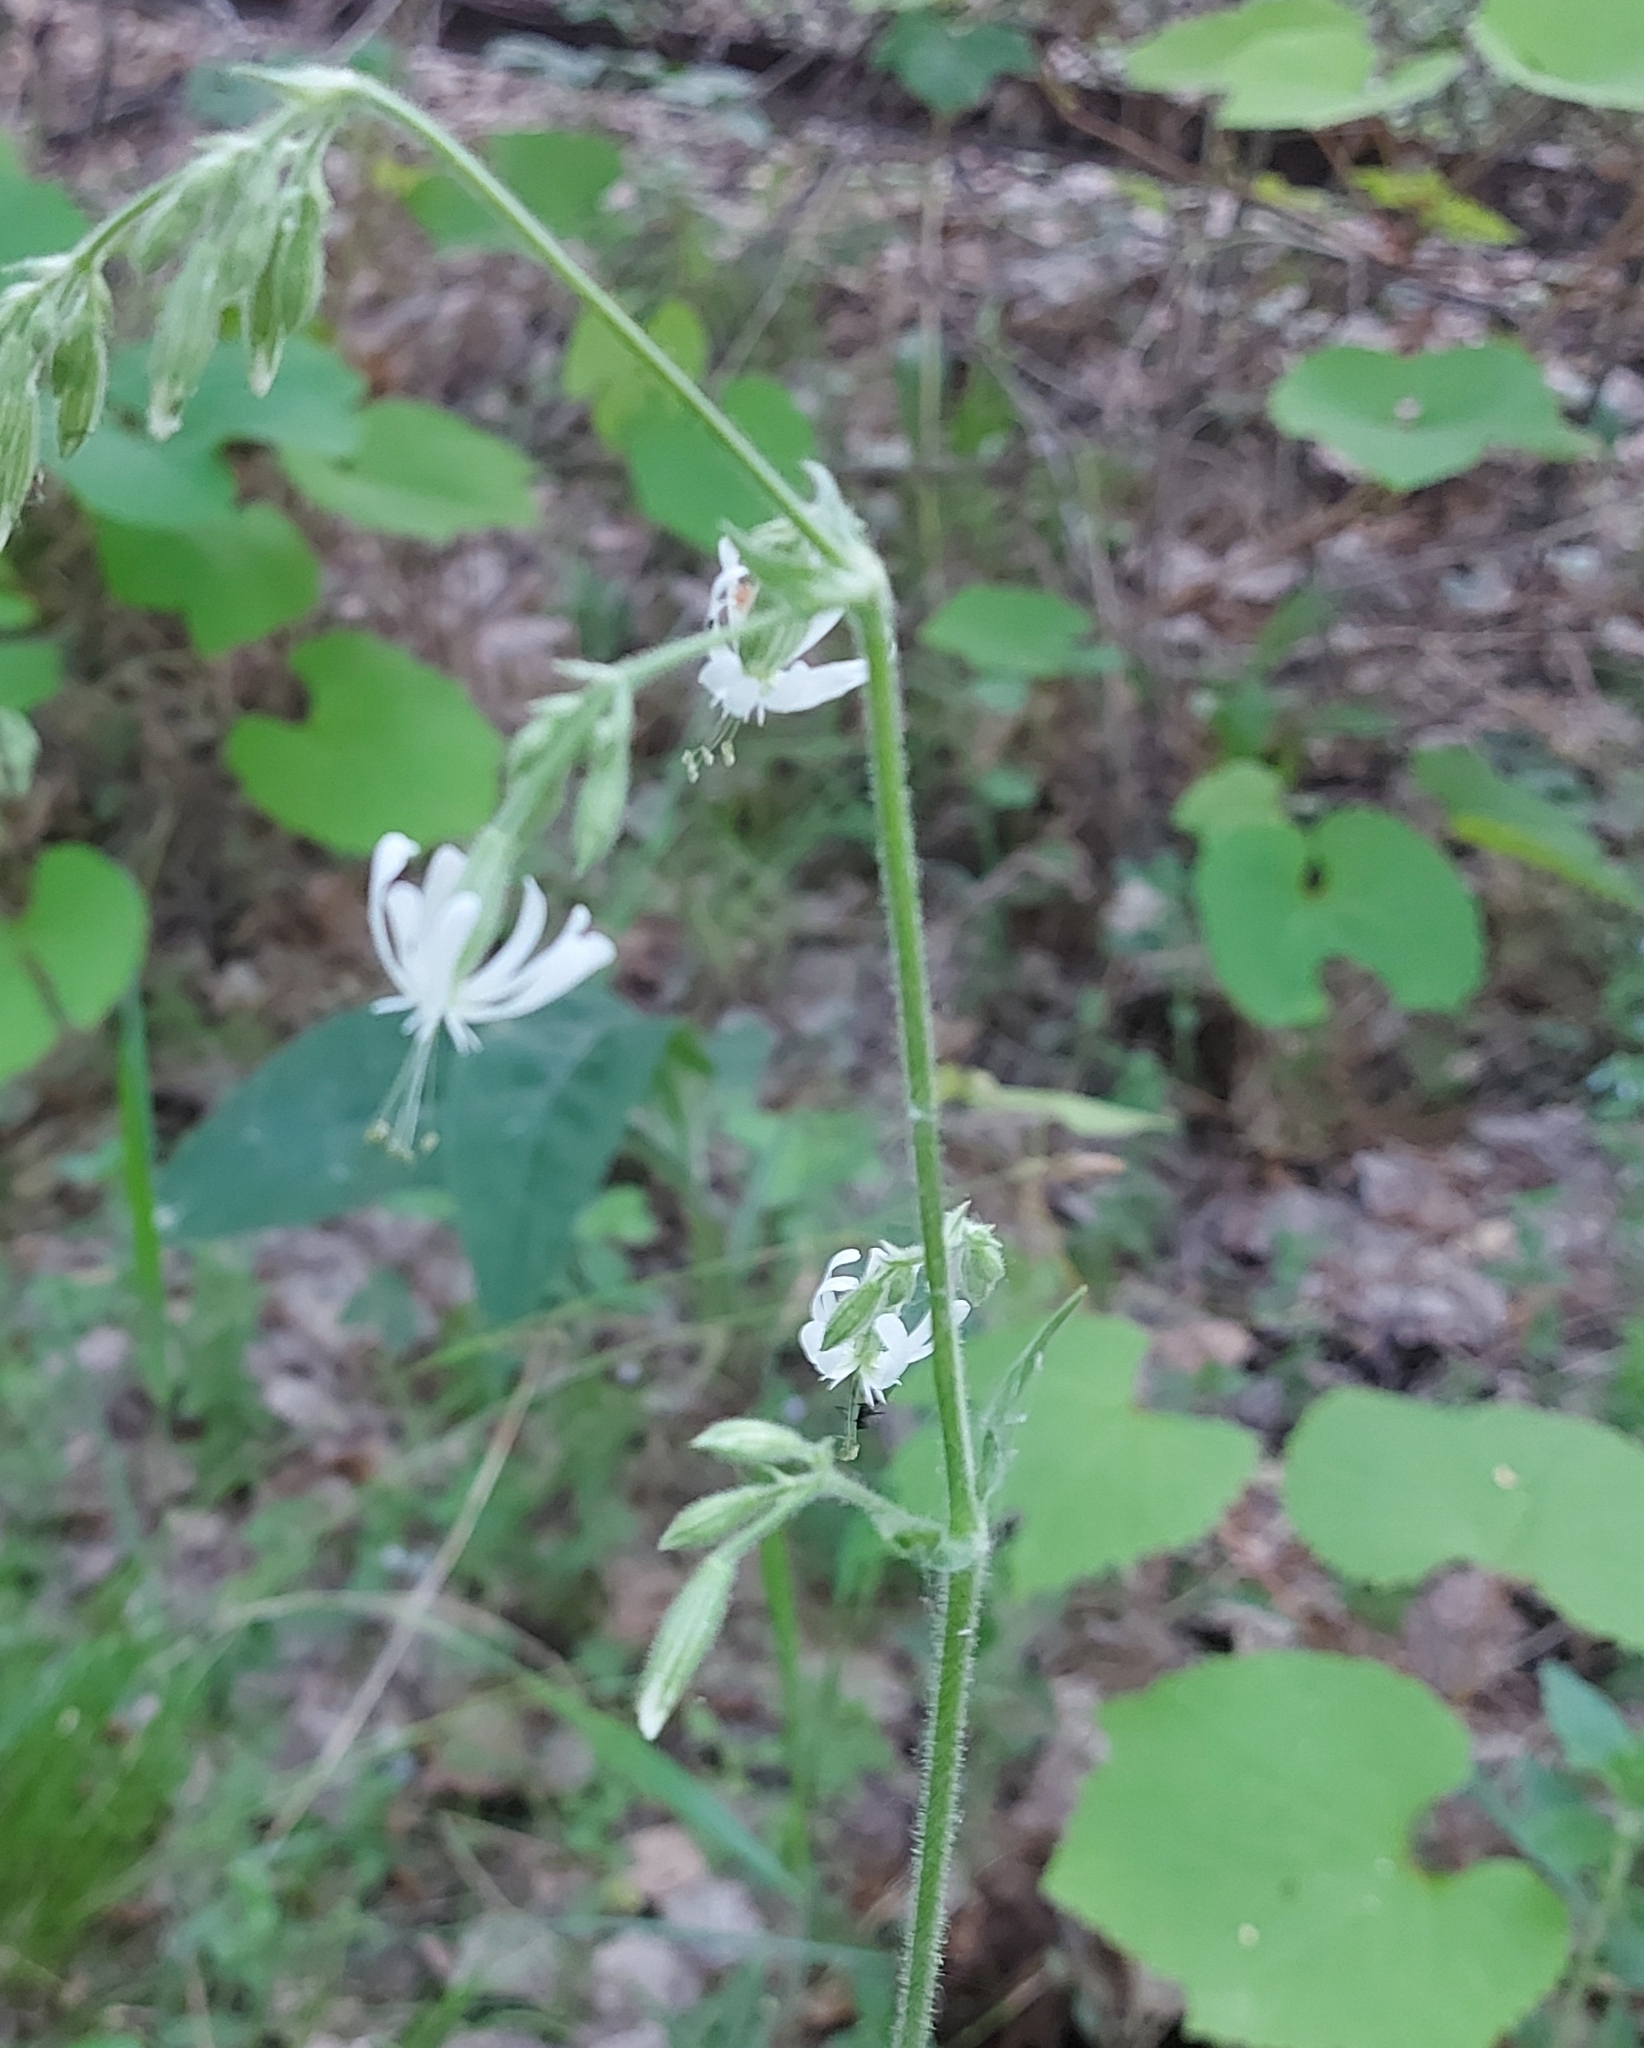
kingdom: Plantae
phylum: Tracheophyta
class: Magnoliopsida
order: Caryophyllales
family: Caryophyllaceae
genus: Silene
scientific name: Silene nutans
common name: Nottingham catchfly
